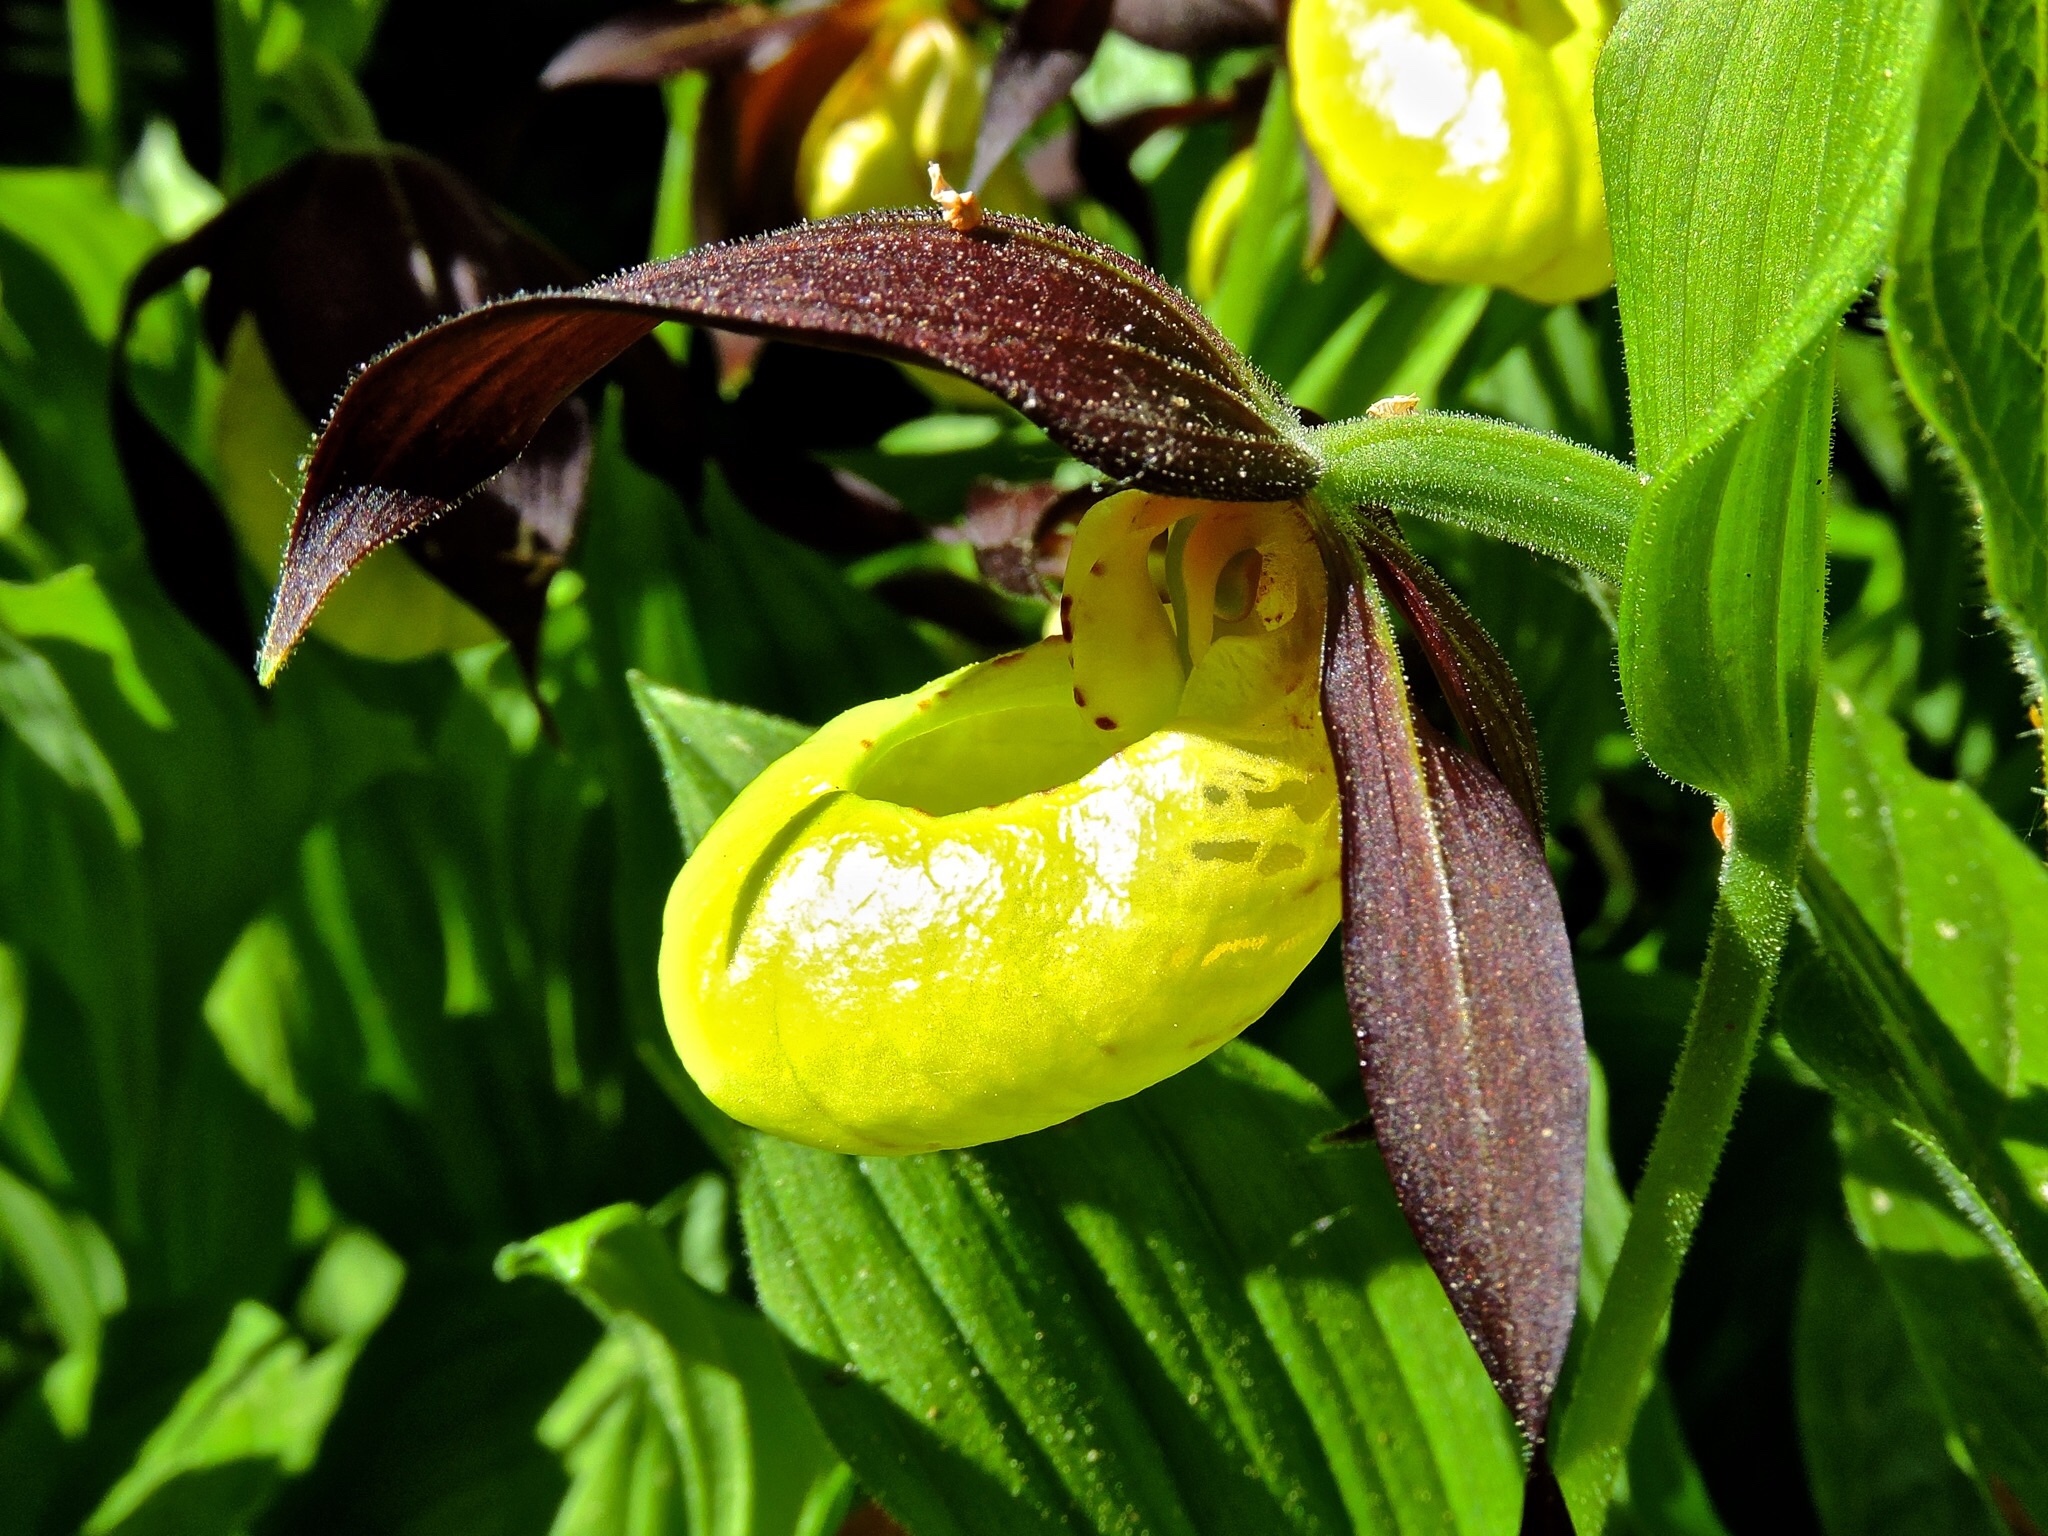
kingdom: Plantae
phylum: Tracheophyta
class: Liliopsida
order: Asparagales
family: Orchidaceae
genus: Cypripedium
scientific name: Cypripedium calceolus
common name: Lady's-slipper
